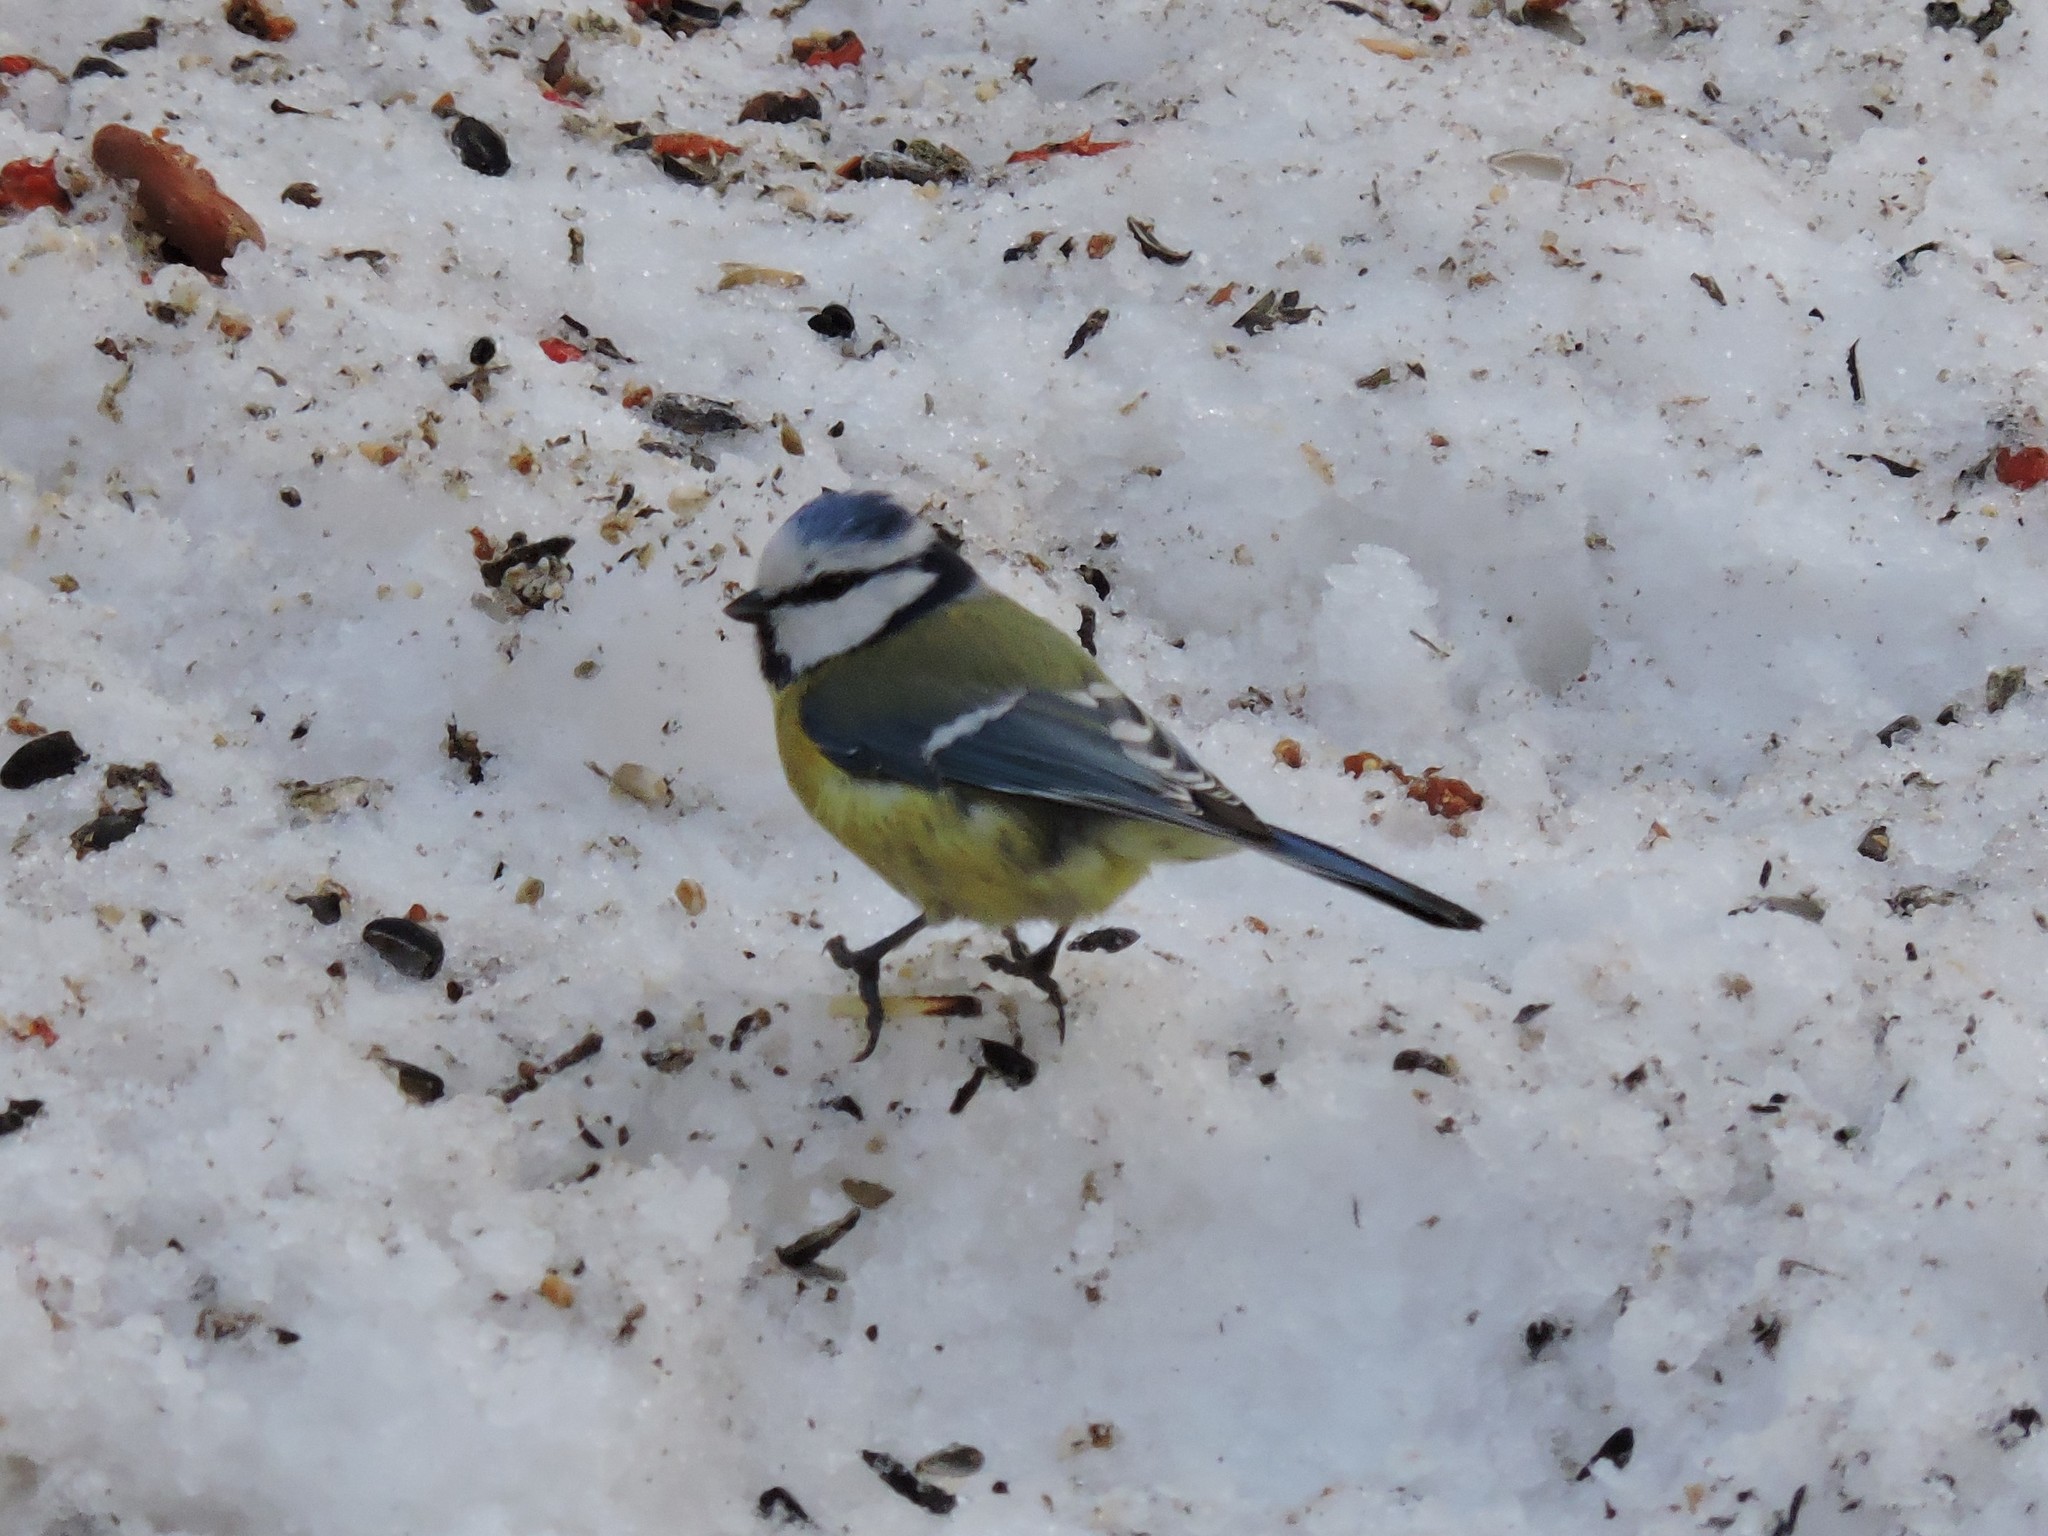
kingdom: Animalia
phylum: Chordata
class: Aves
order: Passeriformes
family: Paridae
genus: Cyanistes
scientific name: Cyanistes caeruleus
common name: Eurasian blue tit
